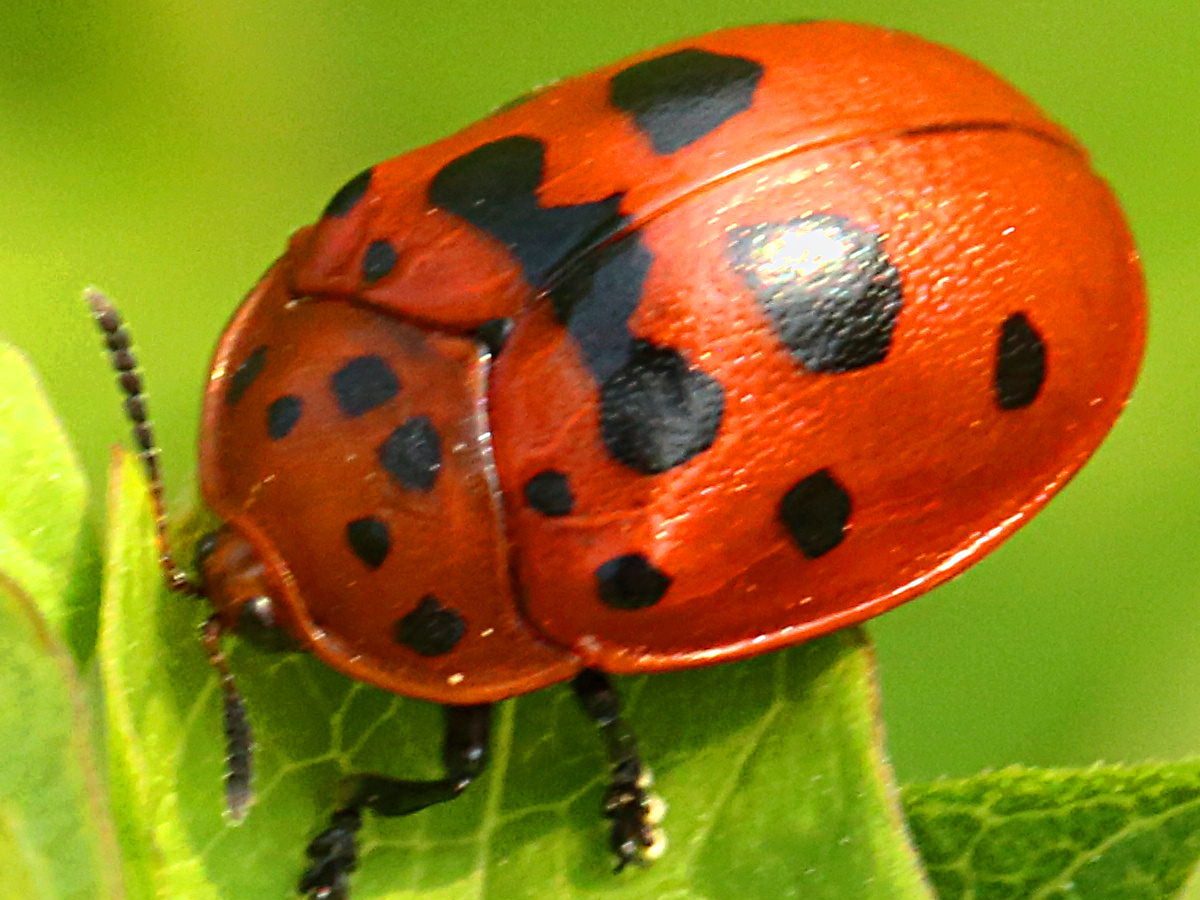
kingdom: Animalia
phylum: Arthropoda
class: Insecta
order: Coleoptera
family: Chrysomelidae
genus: Chelymorpha
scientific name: Chelymorpha cassidea
